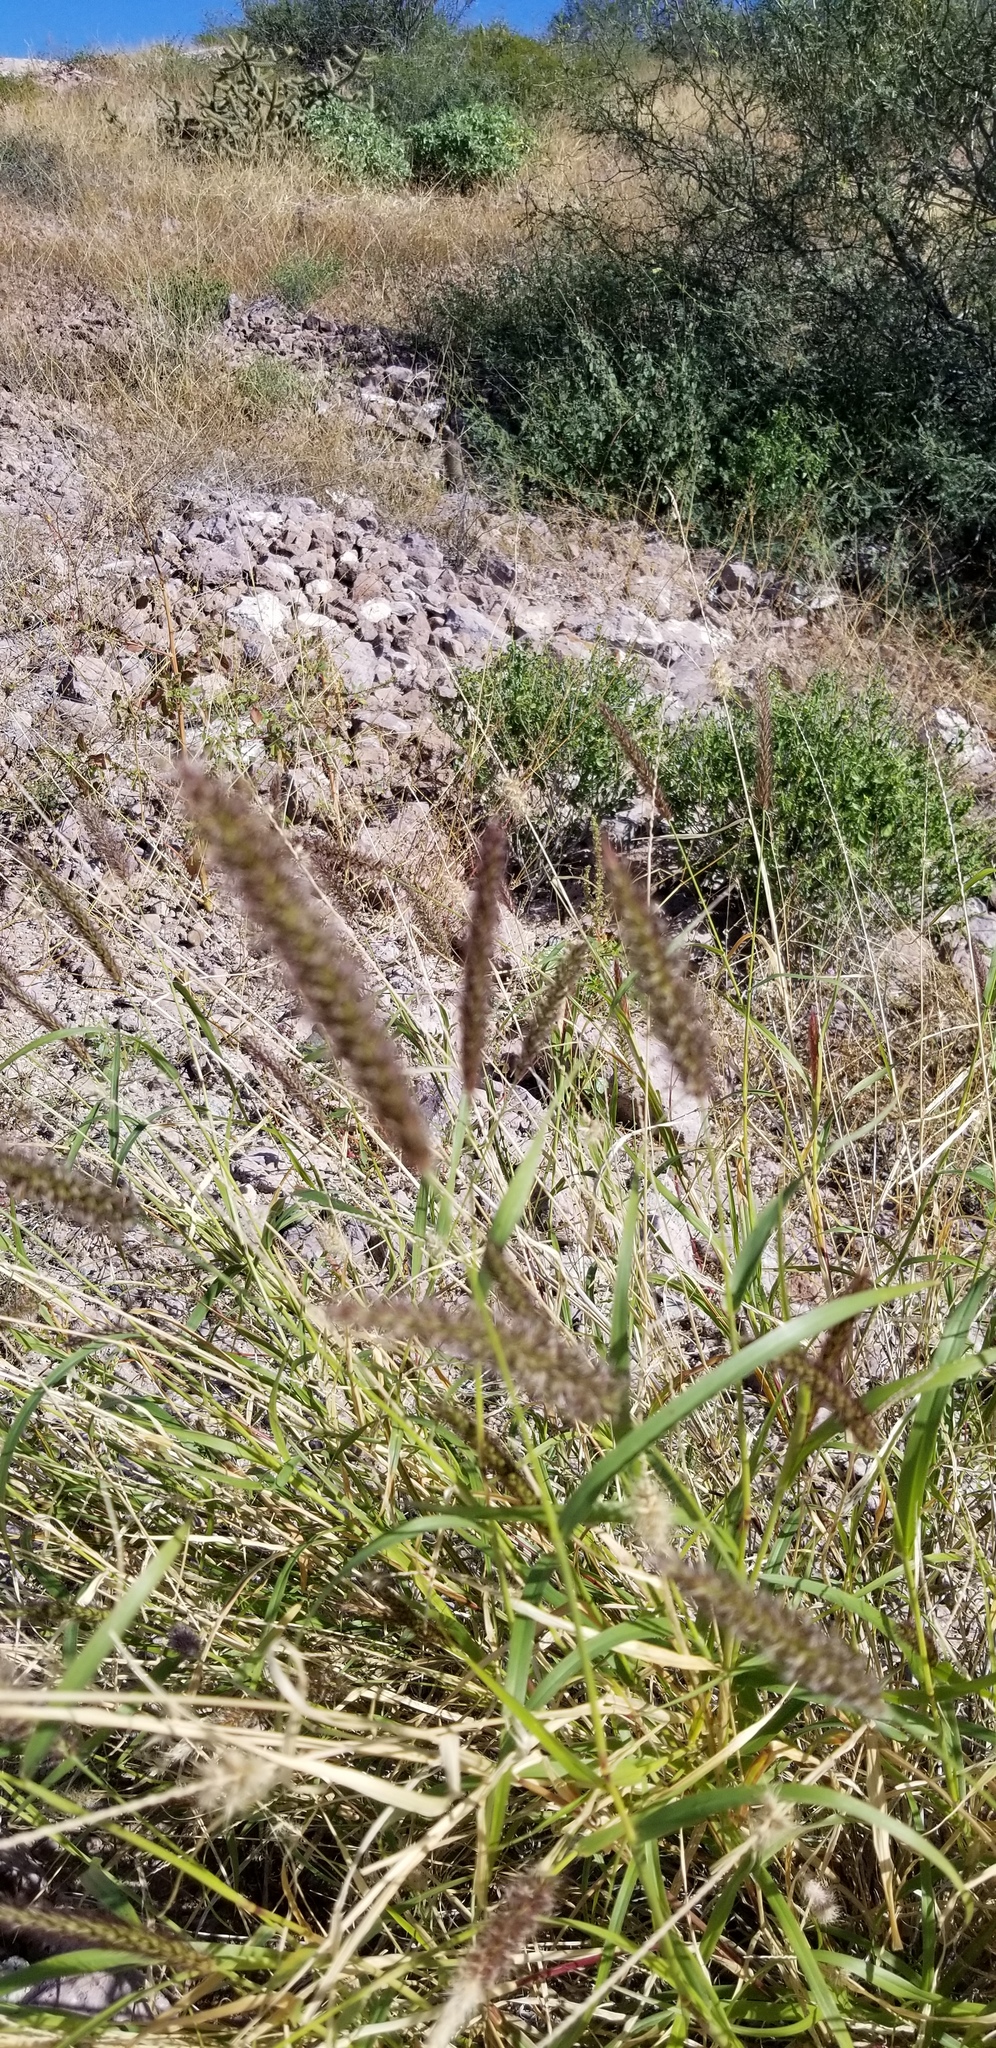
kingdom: Plantae
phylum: Tracheophyta
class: Liliopsida
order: Poales
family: Poaceae
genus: Cenchrus
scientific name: Cenchrus ciliaris
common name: Buffelgrass
